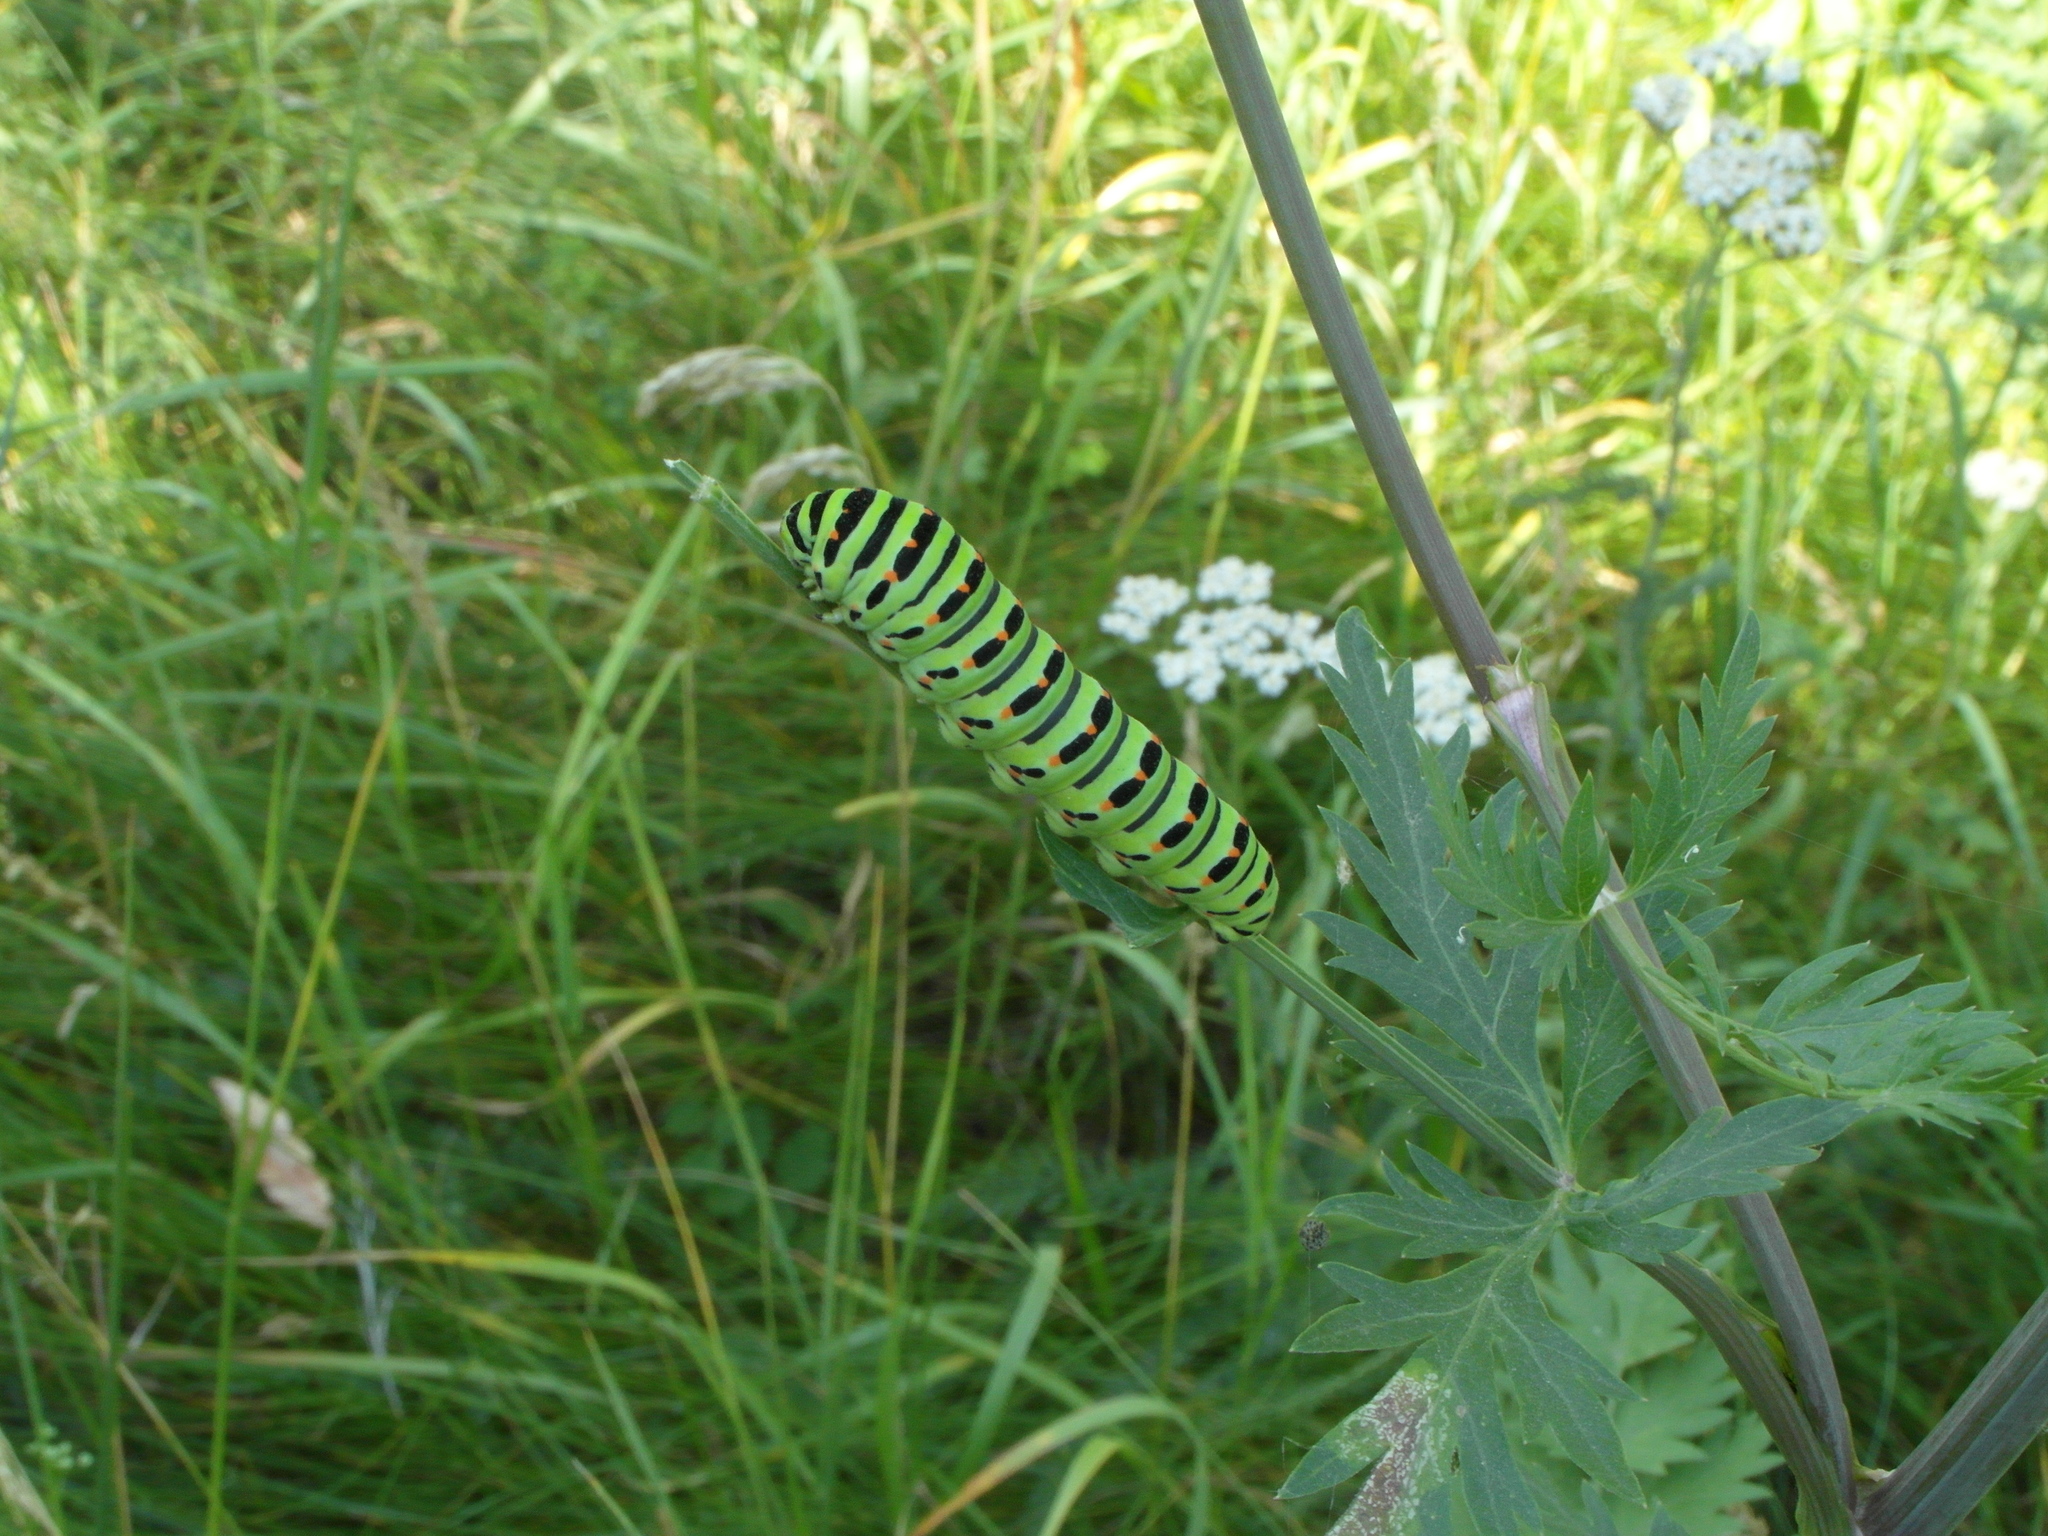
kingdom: Animalia
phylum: Arthropoda
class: Insecta
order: Lepidoptera
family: Papilionidae
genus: Papilio
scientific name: Papilio machaon
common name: Swallowtail
